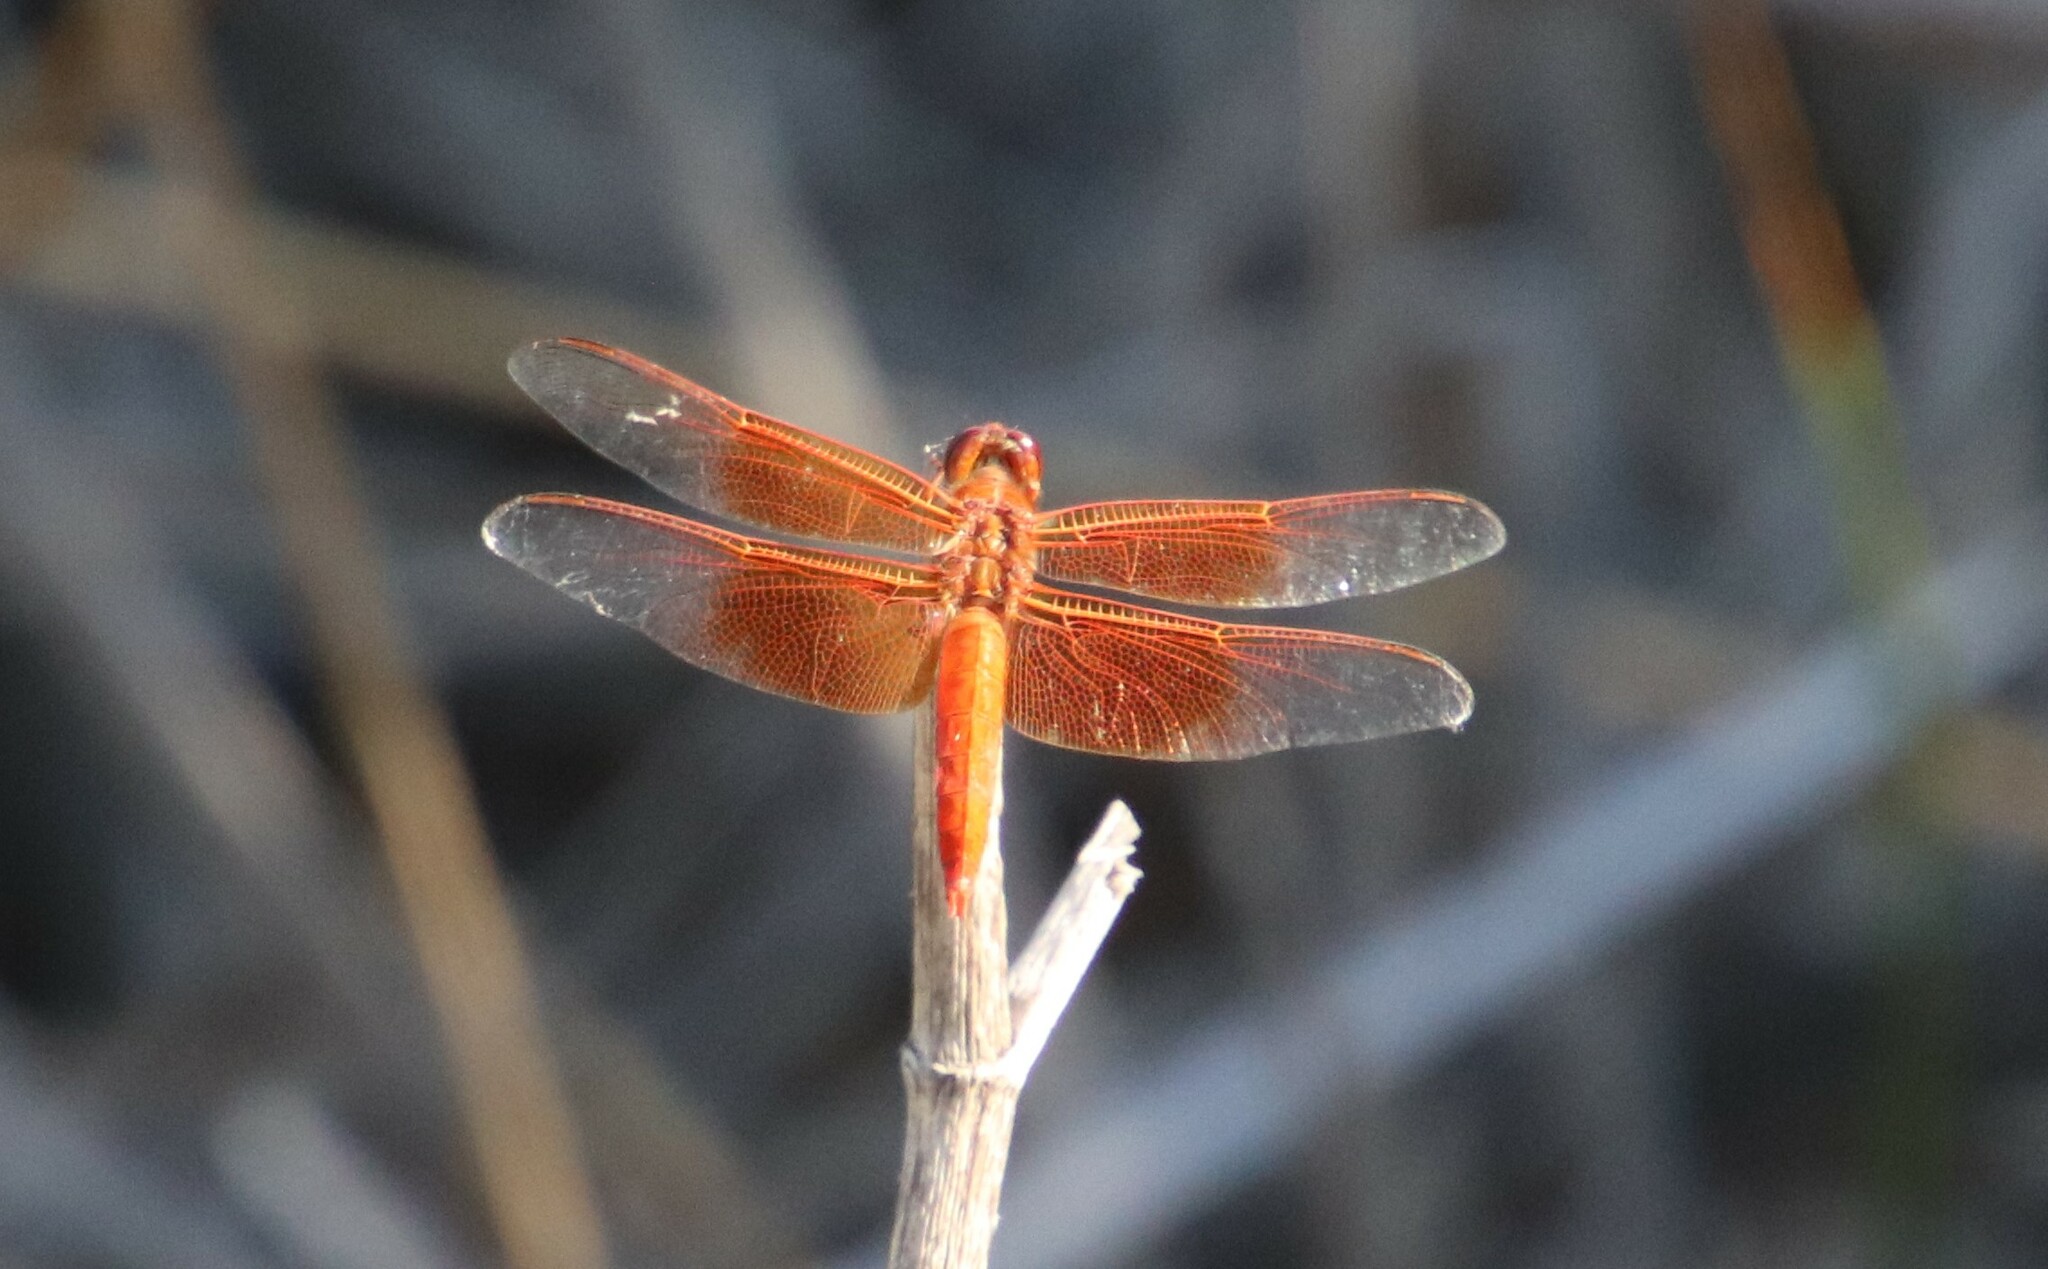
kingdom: Animalia
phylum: Arthropoda
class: Insecta
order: Odonata
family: Libellulidae
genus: Libellula
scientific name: Libellula saturata
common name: Flame skimmer
